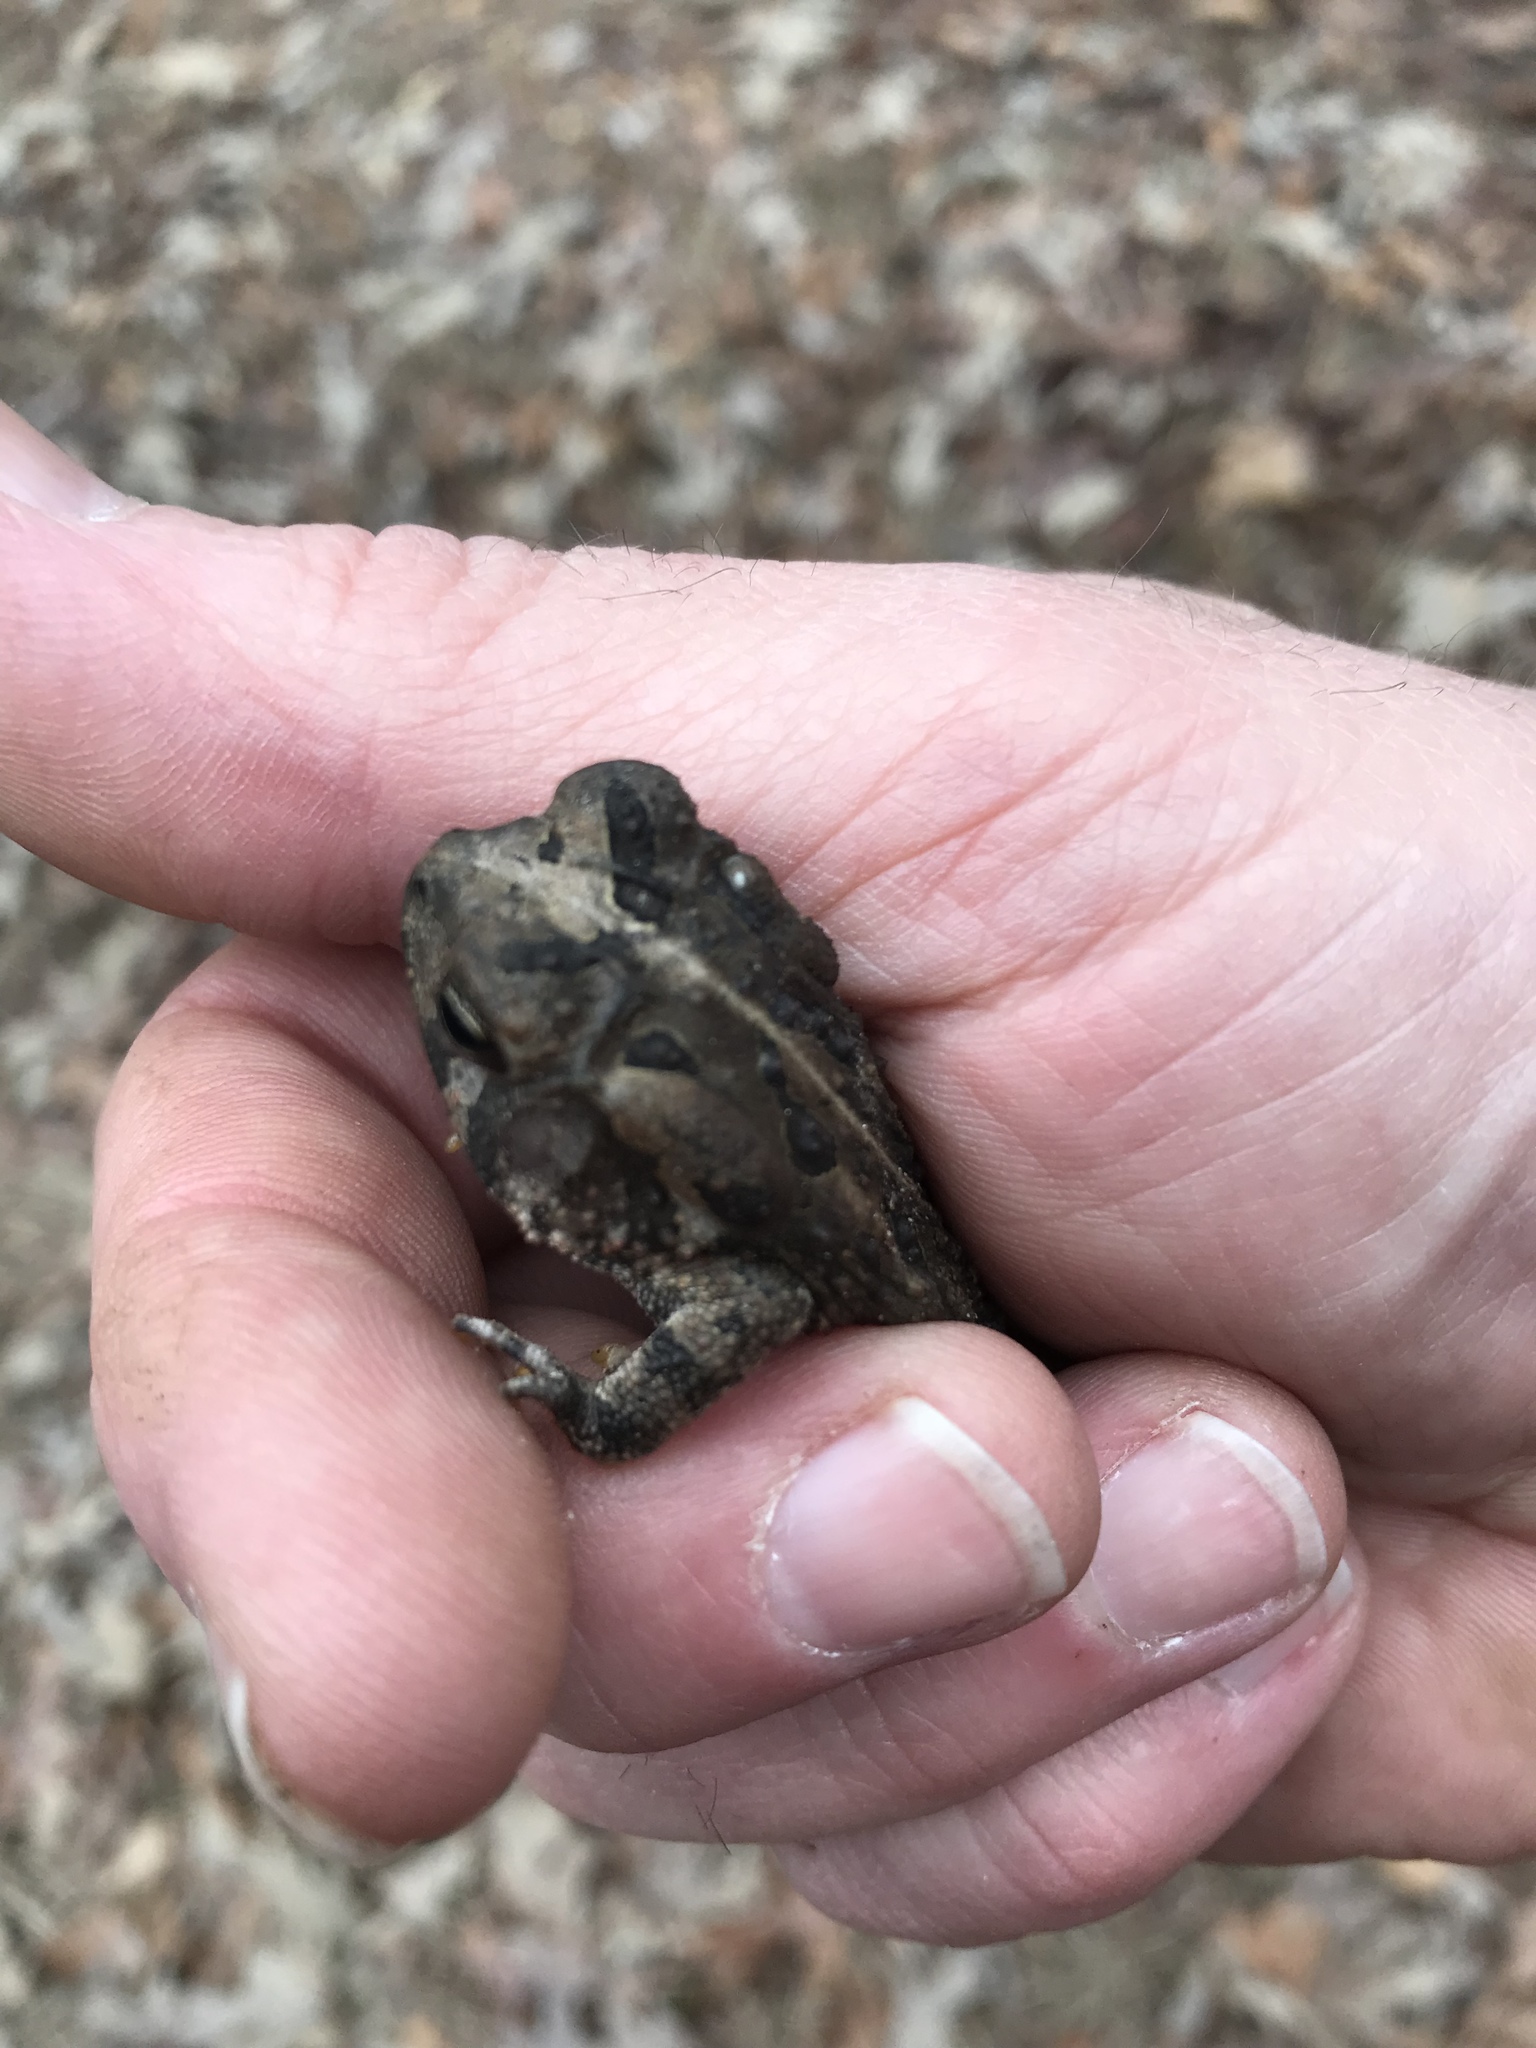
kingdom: Animalia
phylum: Chordata
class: Amphibia
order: Anura
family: Bufonidae
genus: Anaxyrus
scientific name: Anaxyrus woodhousii
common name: Woodhouse's toad
